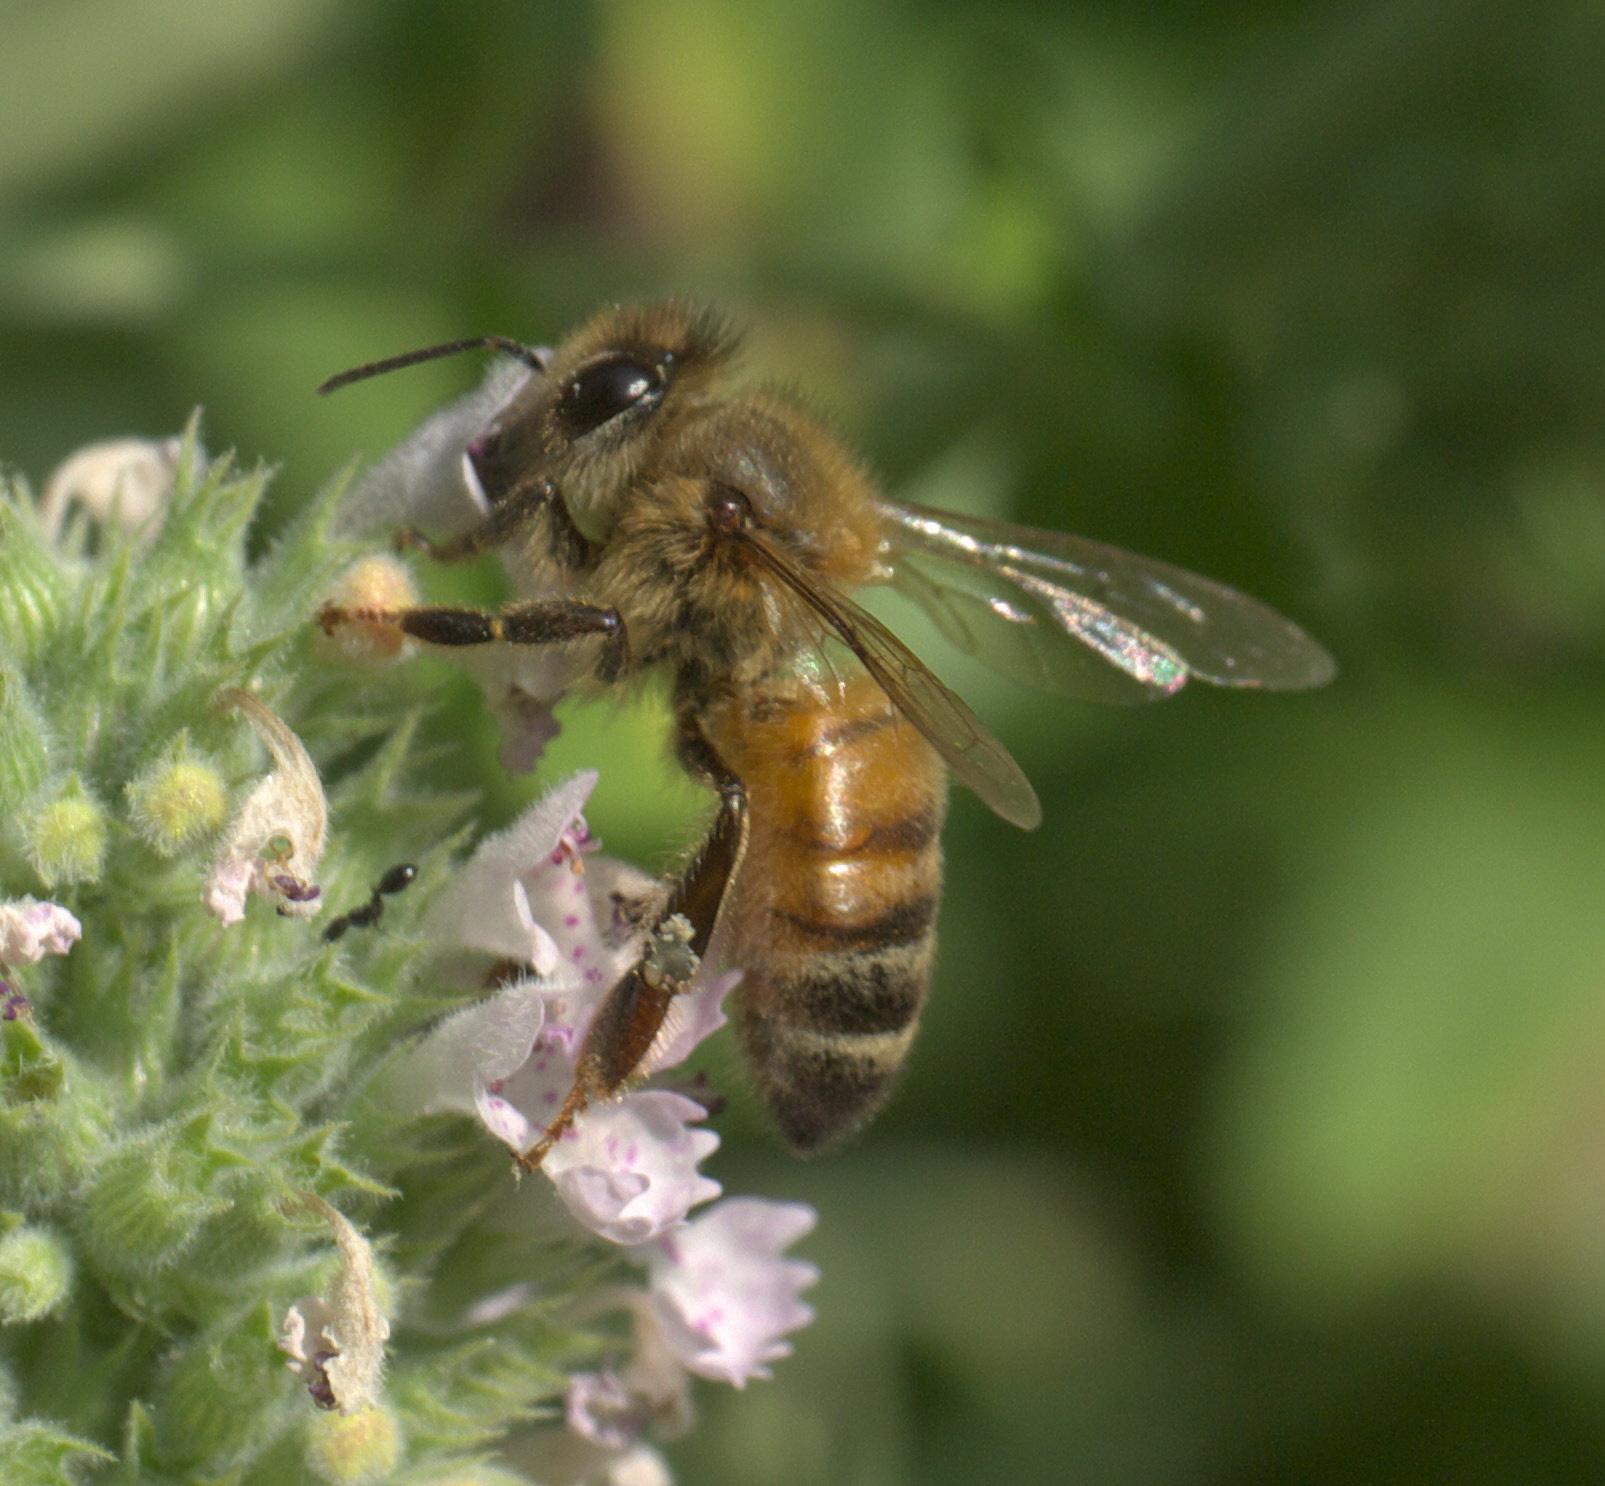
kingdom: Animalia
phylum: Arthropoda
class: Insecta
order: Hymenoptera
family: Apidae
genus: Apis
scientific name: Apis mellifera
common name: Honey bee
